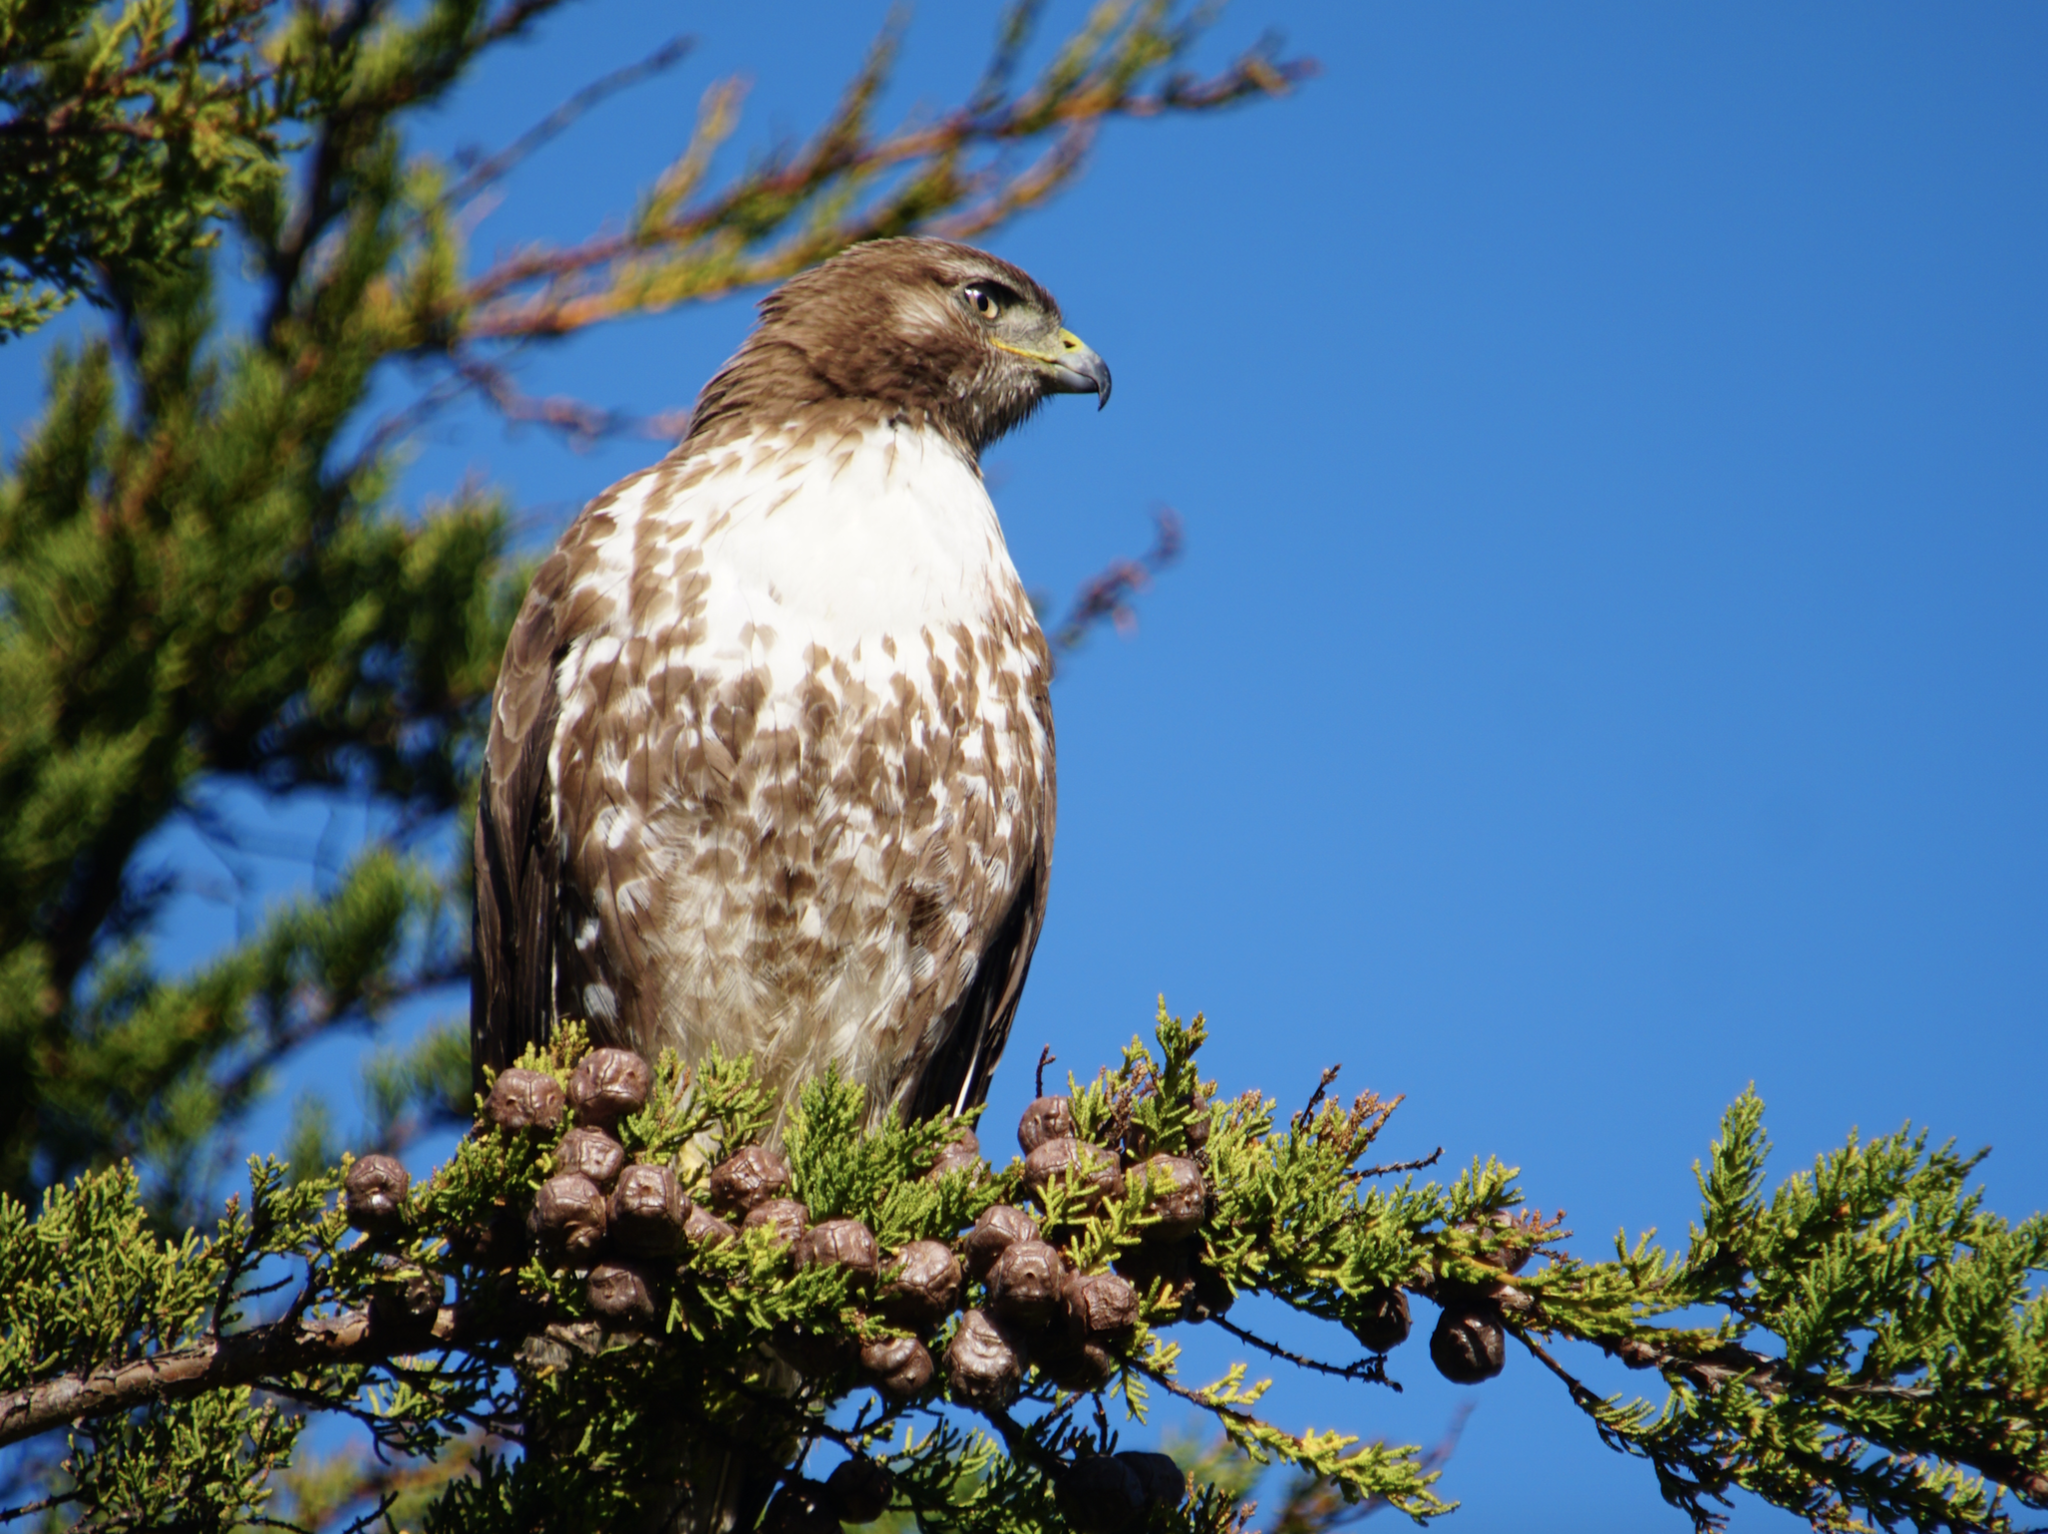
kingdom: Animalia
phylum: Chordata
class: Aves
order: Accipitriformes
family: Accipitridae
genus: Buteo
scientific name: Buteo jamaicensis
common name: Red-tailed hawk
